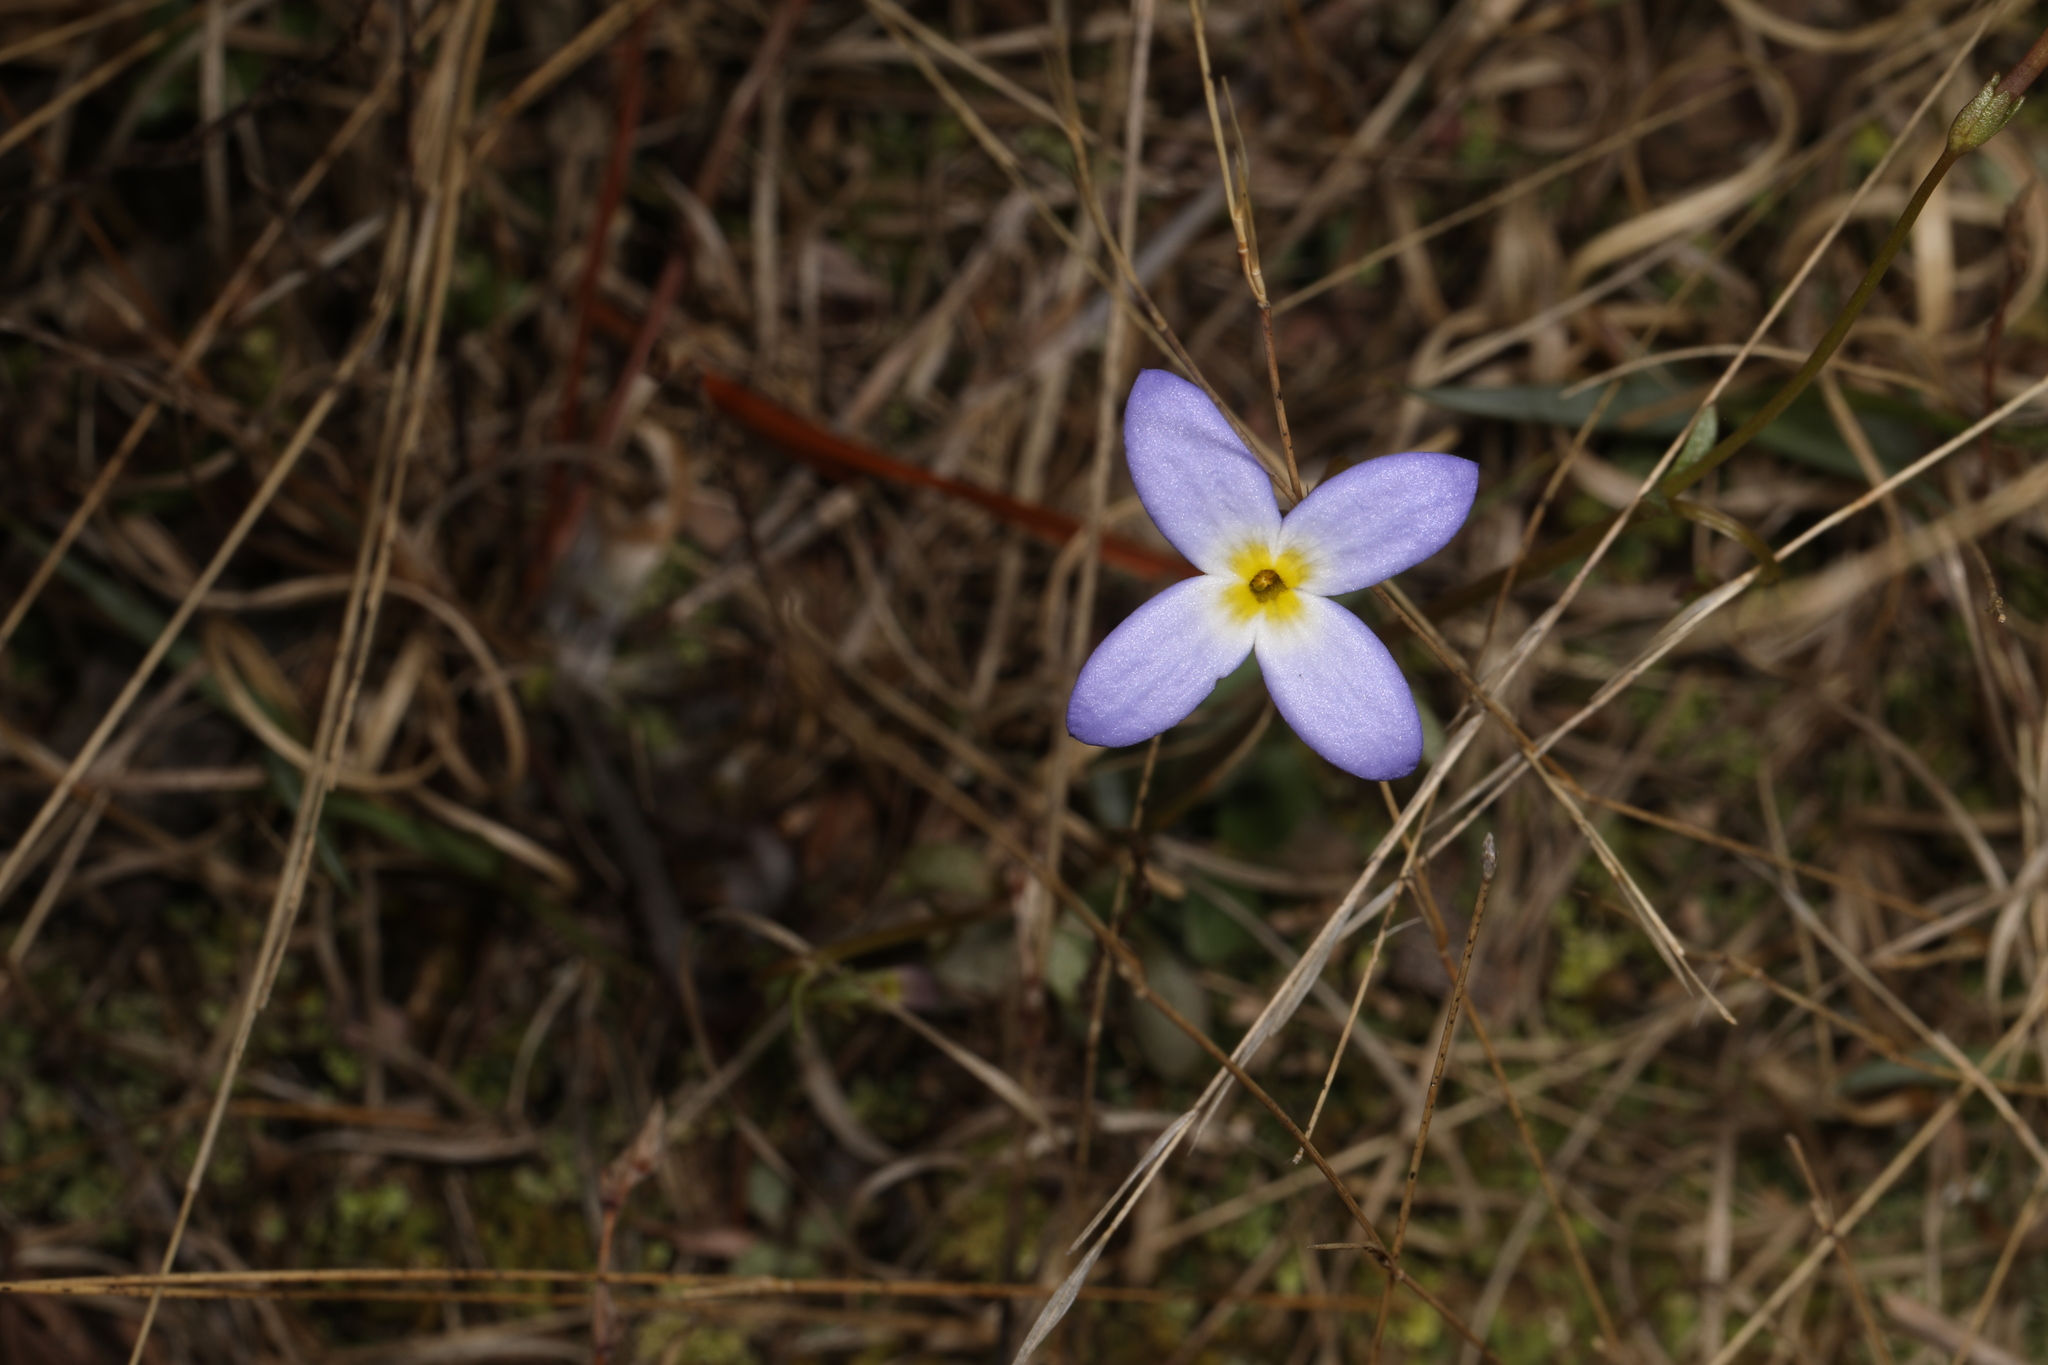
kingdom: Plantae
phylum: Tracheophyta
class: Magnoliopsida
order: Gentianales
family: Rubiaceae
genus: Houstonia
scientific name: Houstonia caerulea
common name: Bluets
